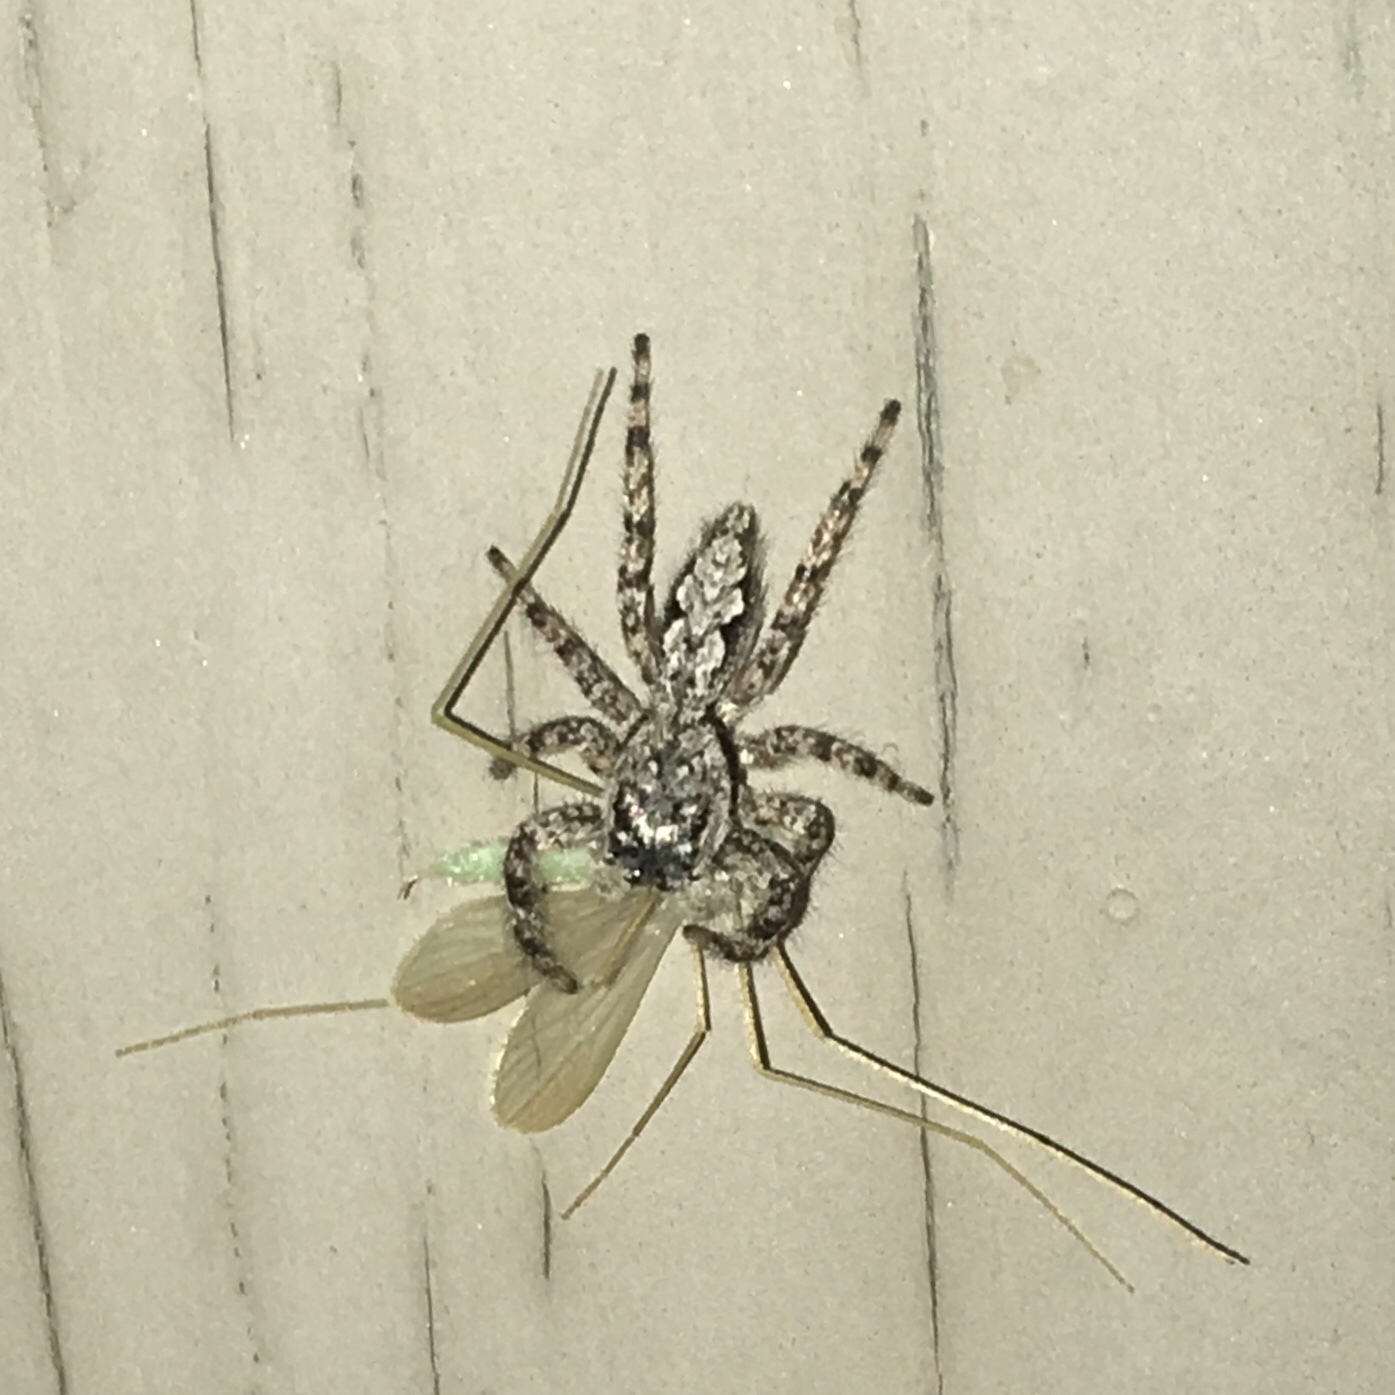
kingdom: Animalia
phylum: Arthropoda
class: Arachnida
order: Araneae
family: Salticidae
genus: Platycryptus
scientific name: Platycryptus undatus
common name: Tan jumping spider
